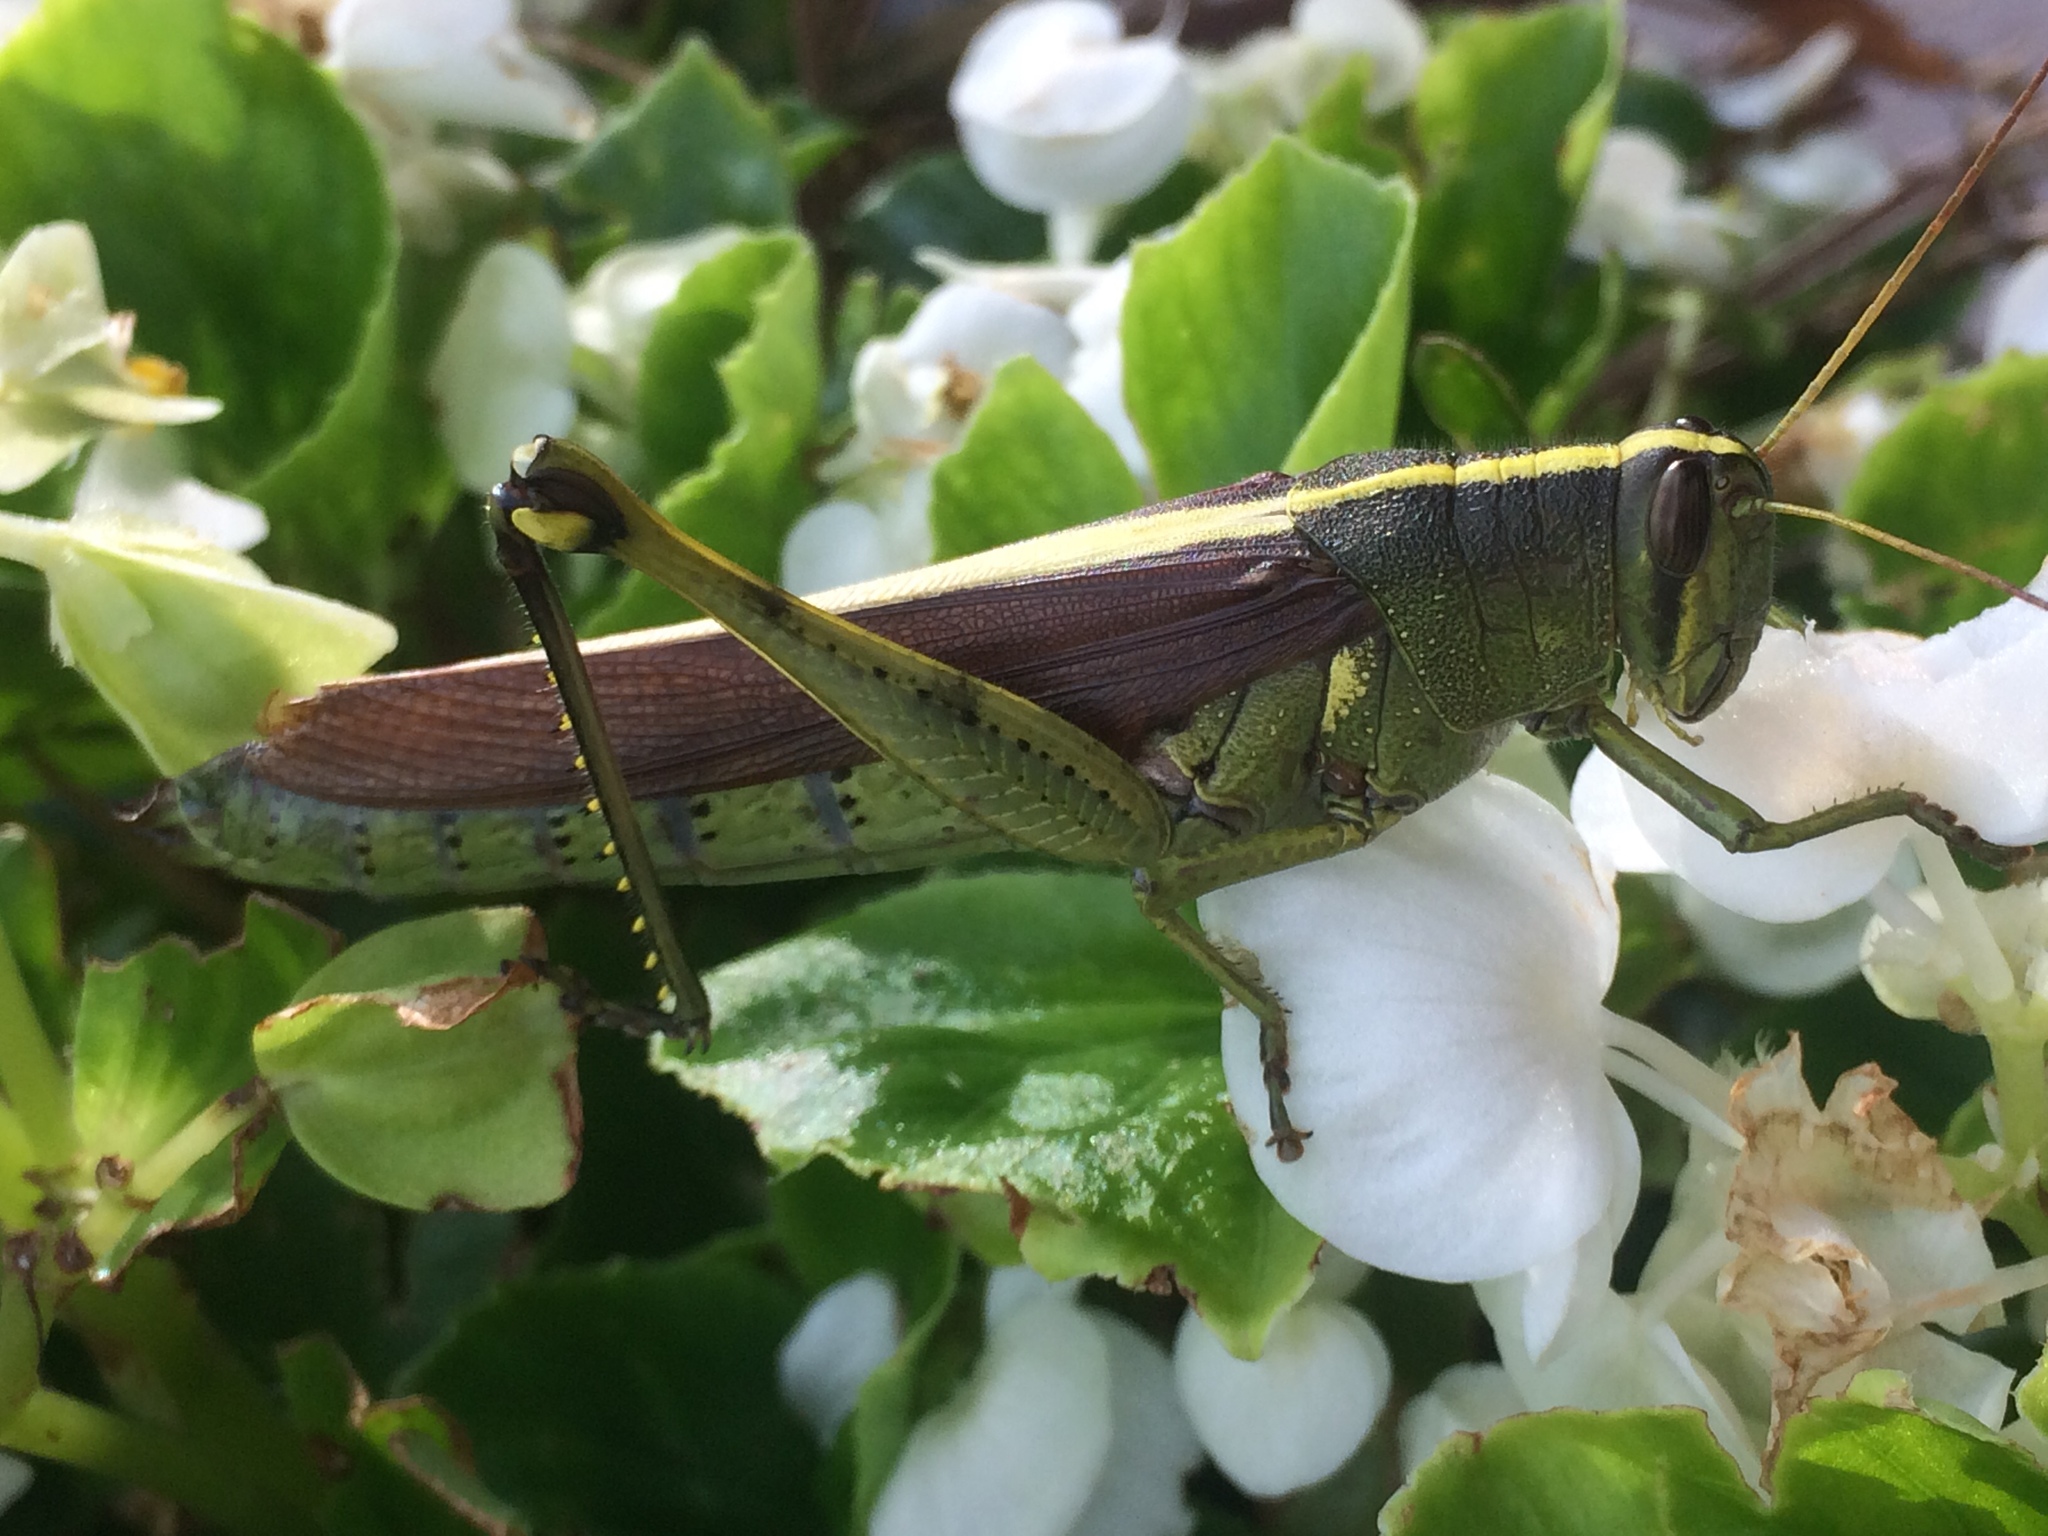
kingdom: Animalia
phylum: Arthropoda
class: Insecta
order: Orthoptera
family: Acrididae
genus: Schistocerca
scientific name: Schistocerca obscura
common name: Obscure bird grasshopper
